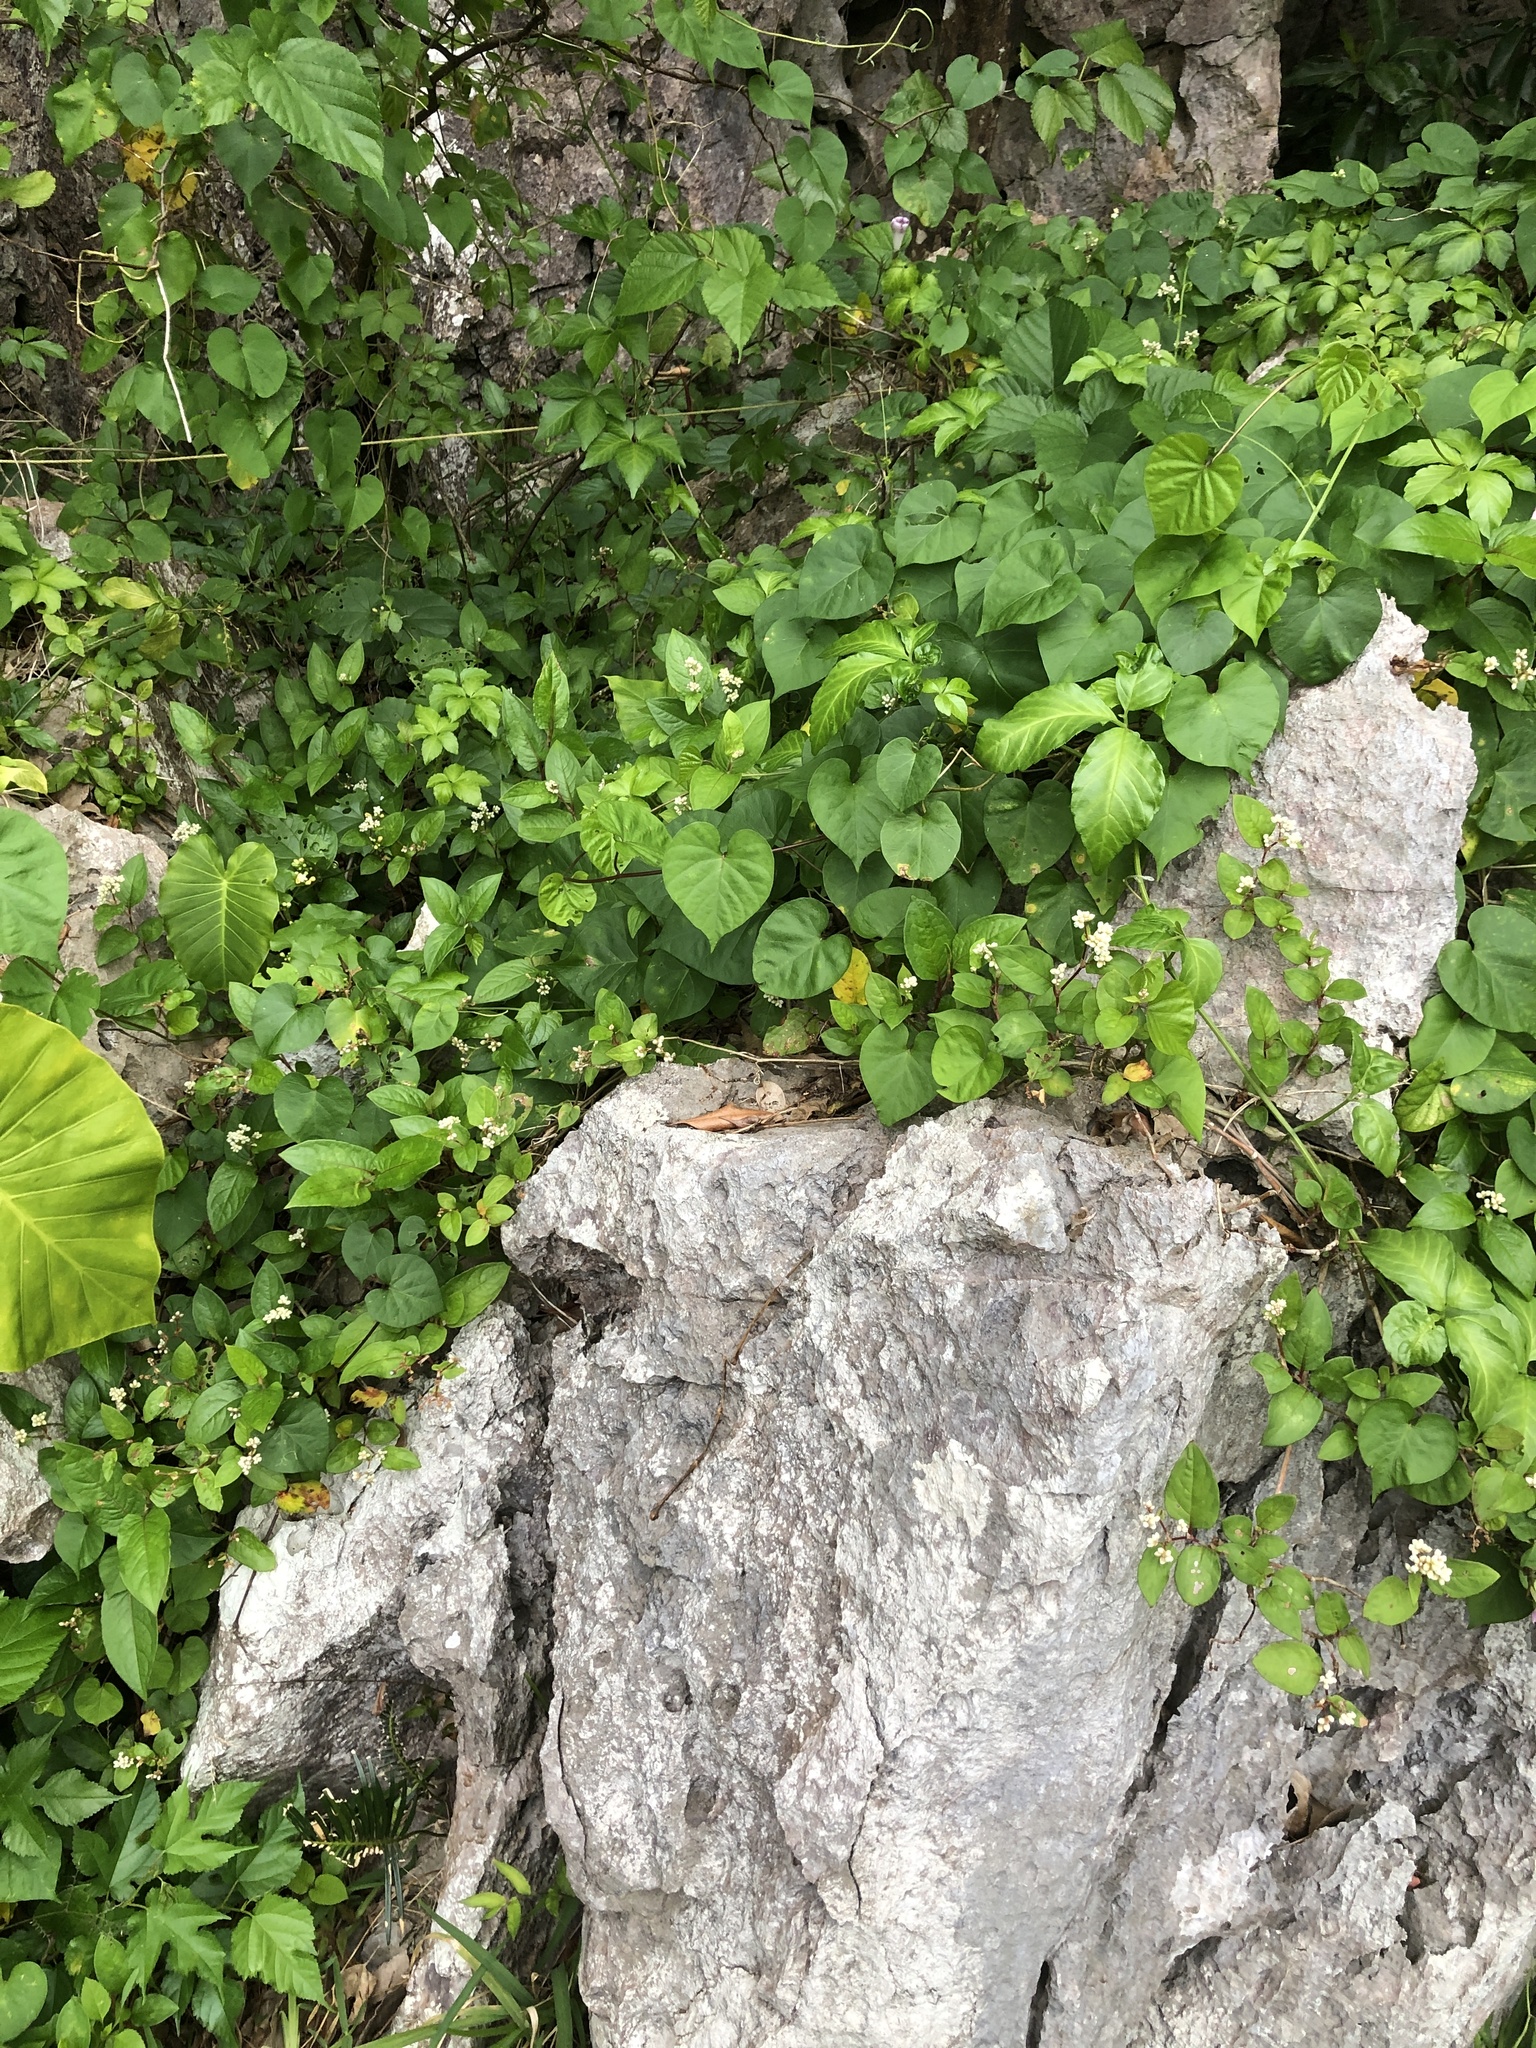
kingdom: Plantae
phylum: Tracheophyta
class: Magnoliopsida
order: Caryophyllales
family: Polygonaceae
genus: Persicaria
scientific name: Persicaria chinensis
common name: Chinese knotweed
